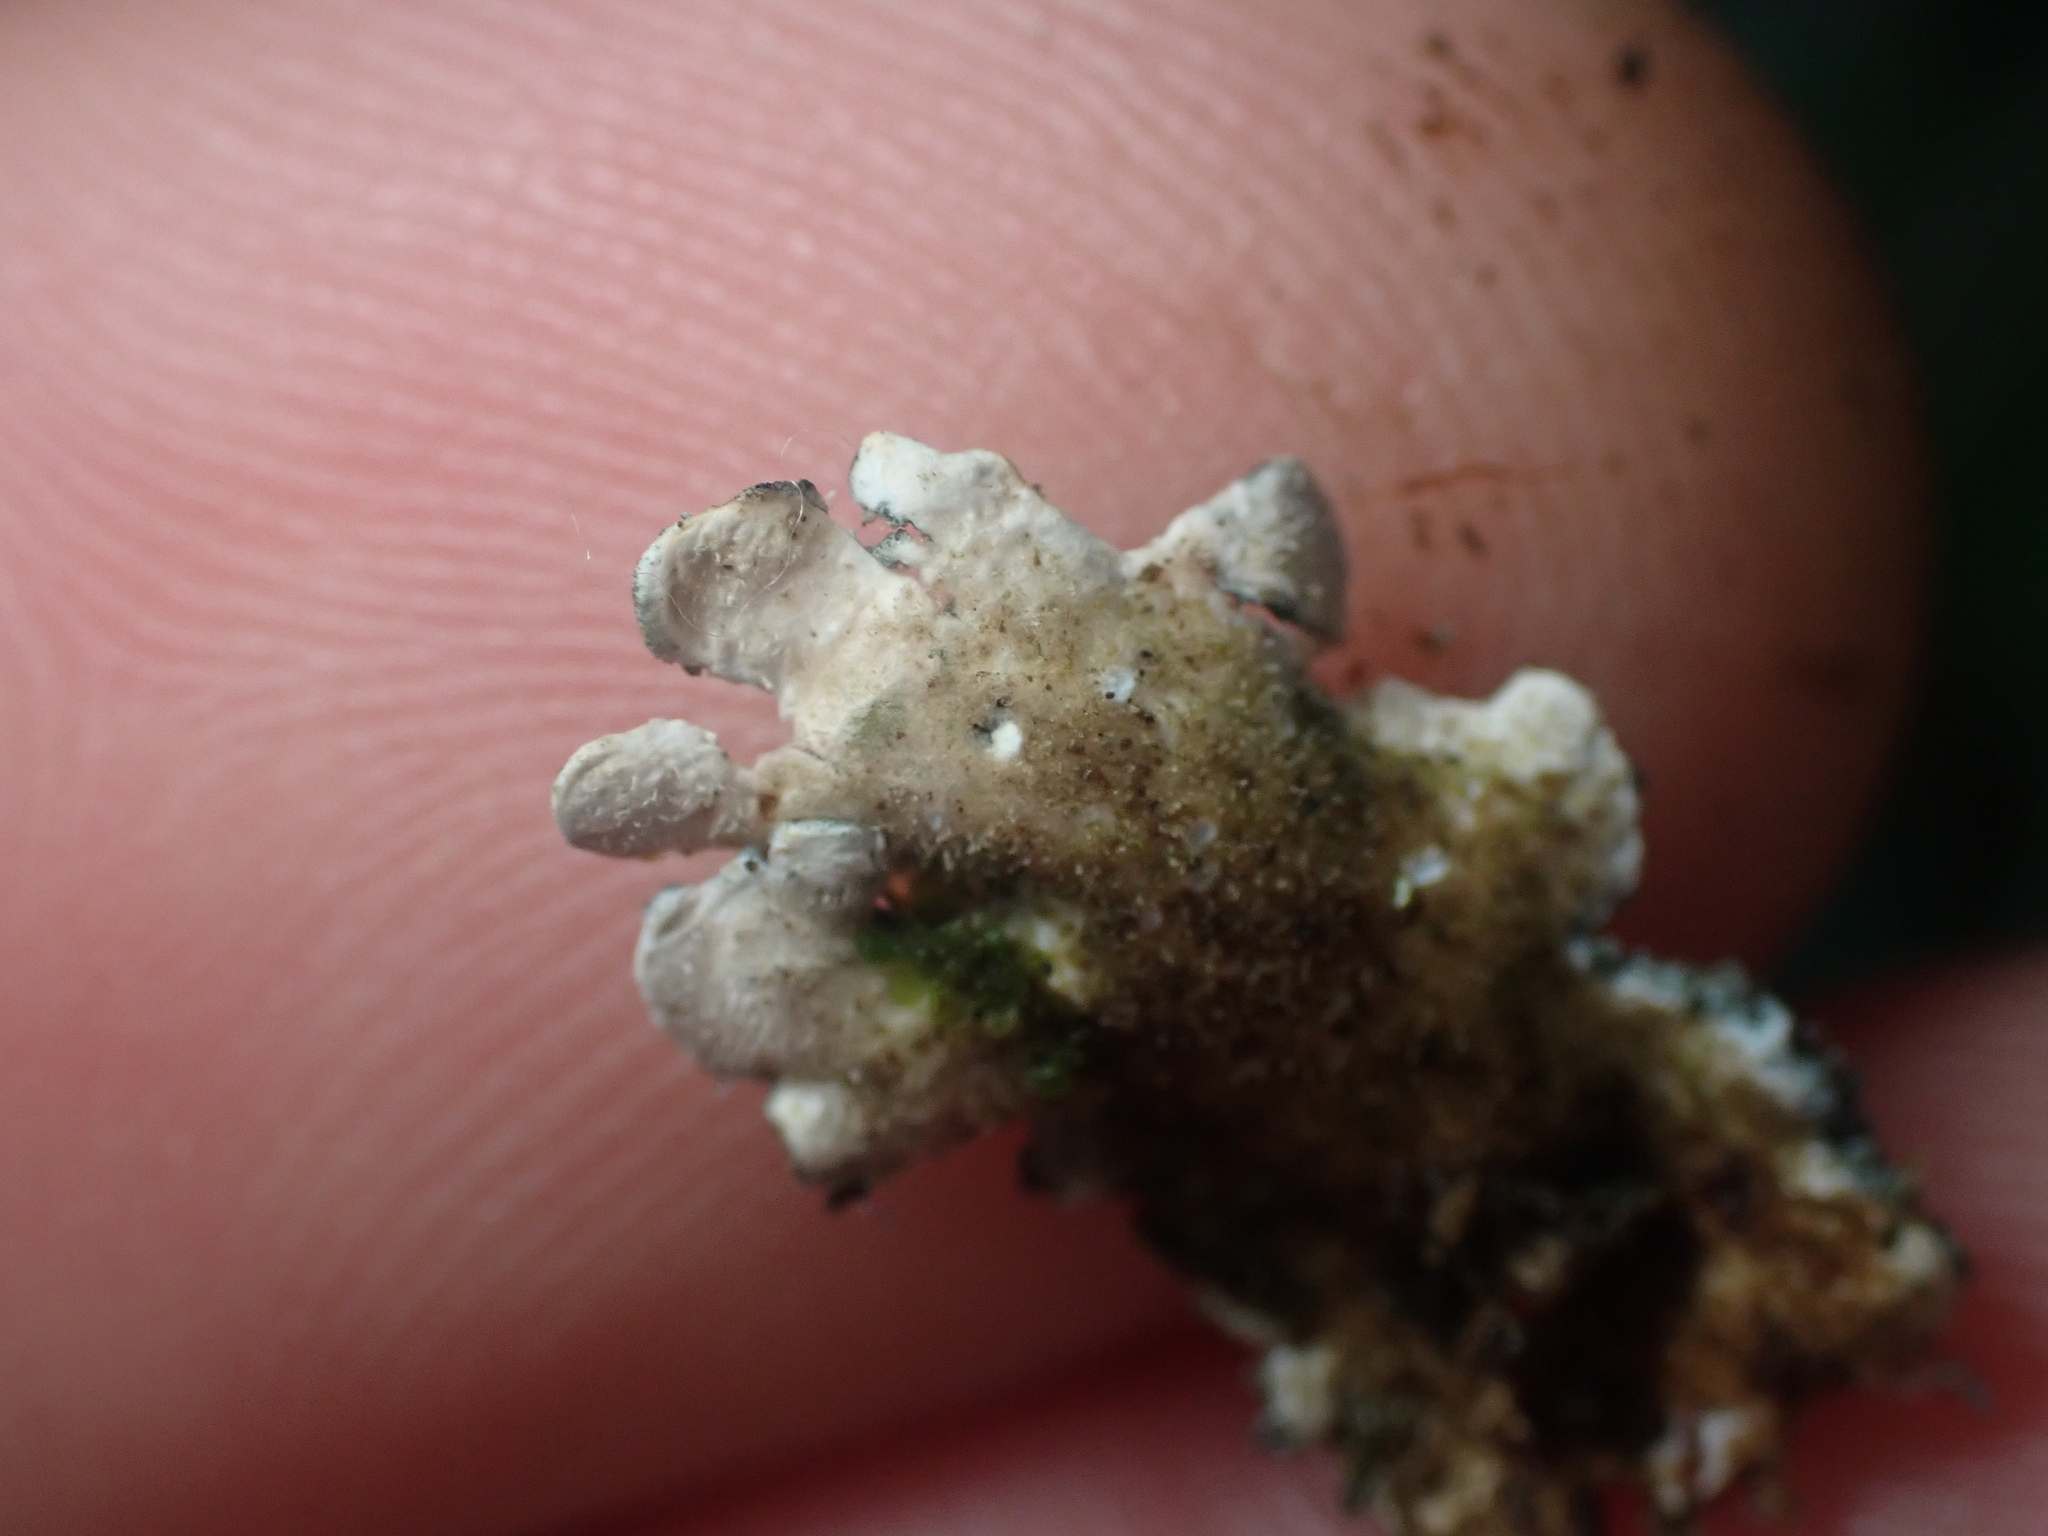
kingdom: Fungi
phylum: Ascomycota
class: Lecanoromycetes
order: Peltigerales
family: Lobariaceae
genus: Sticta
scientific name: Sticta limbata
